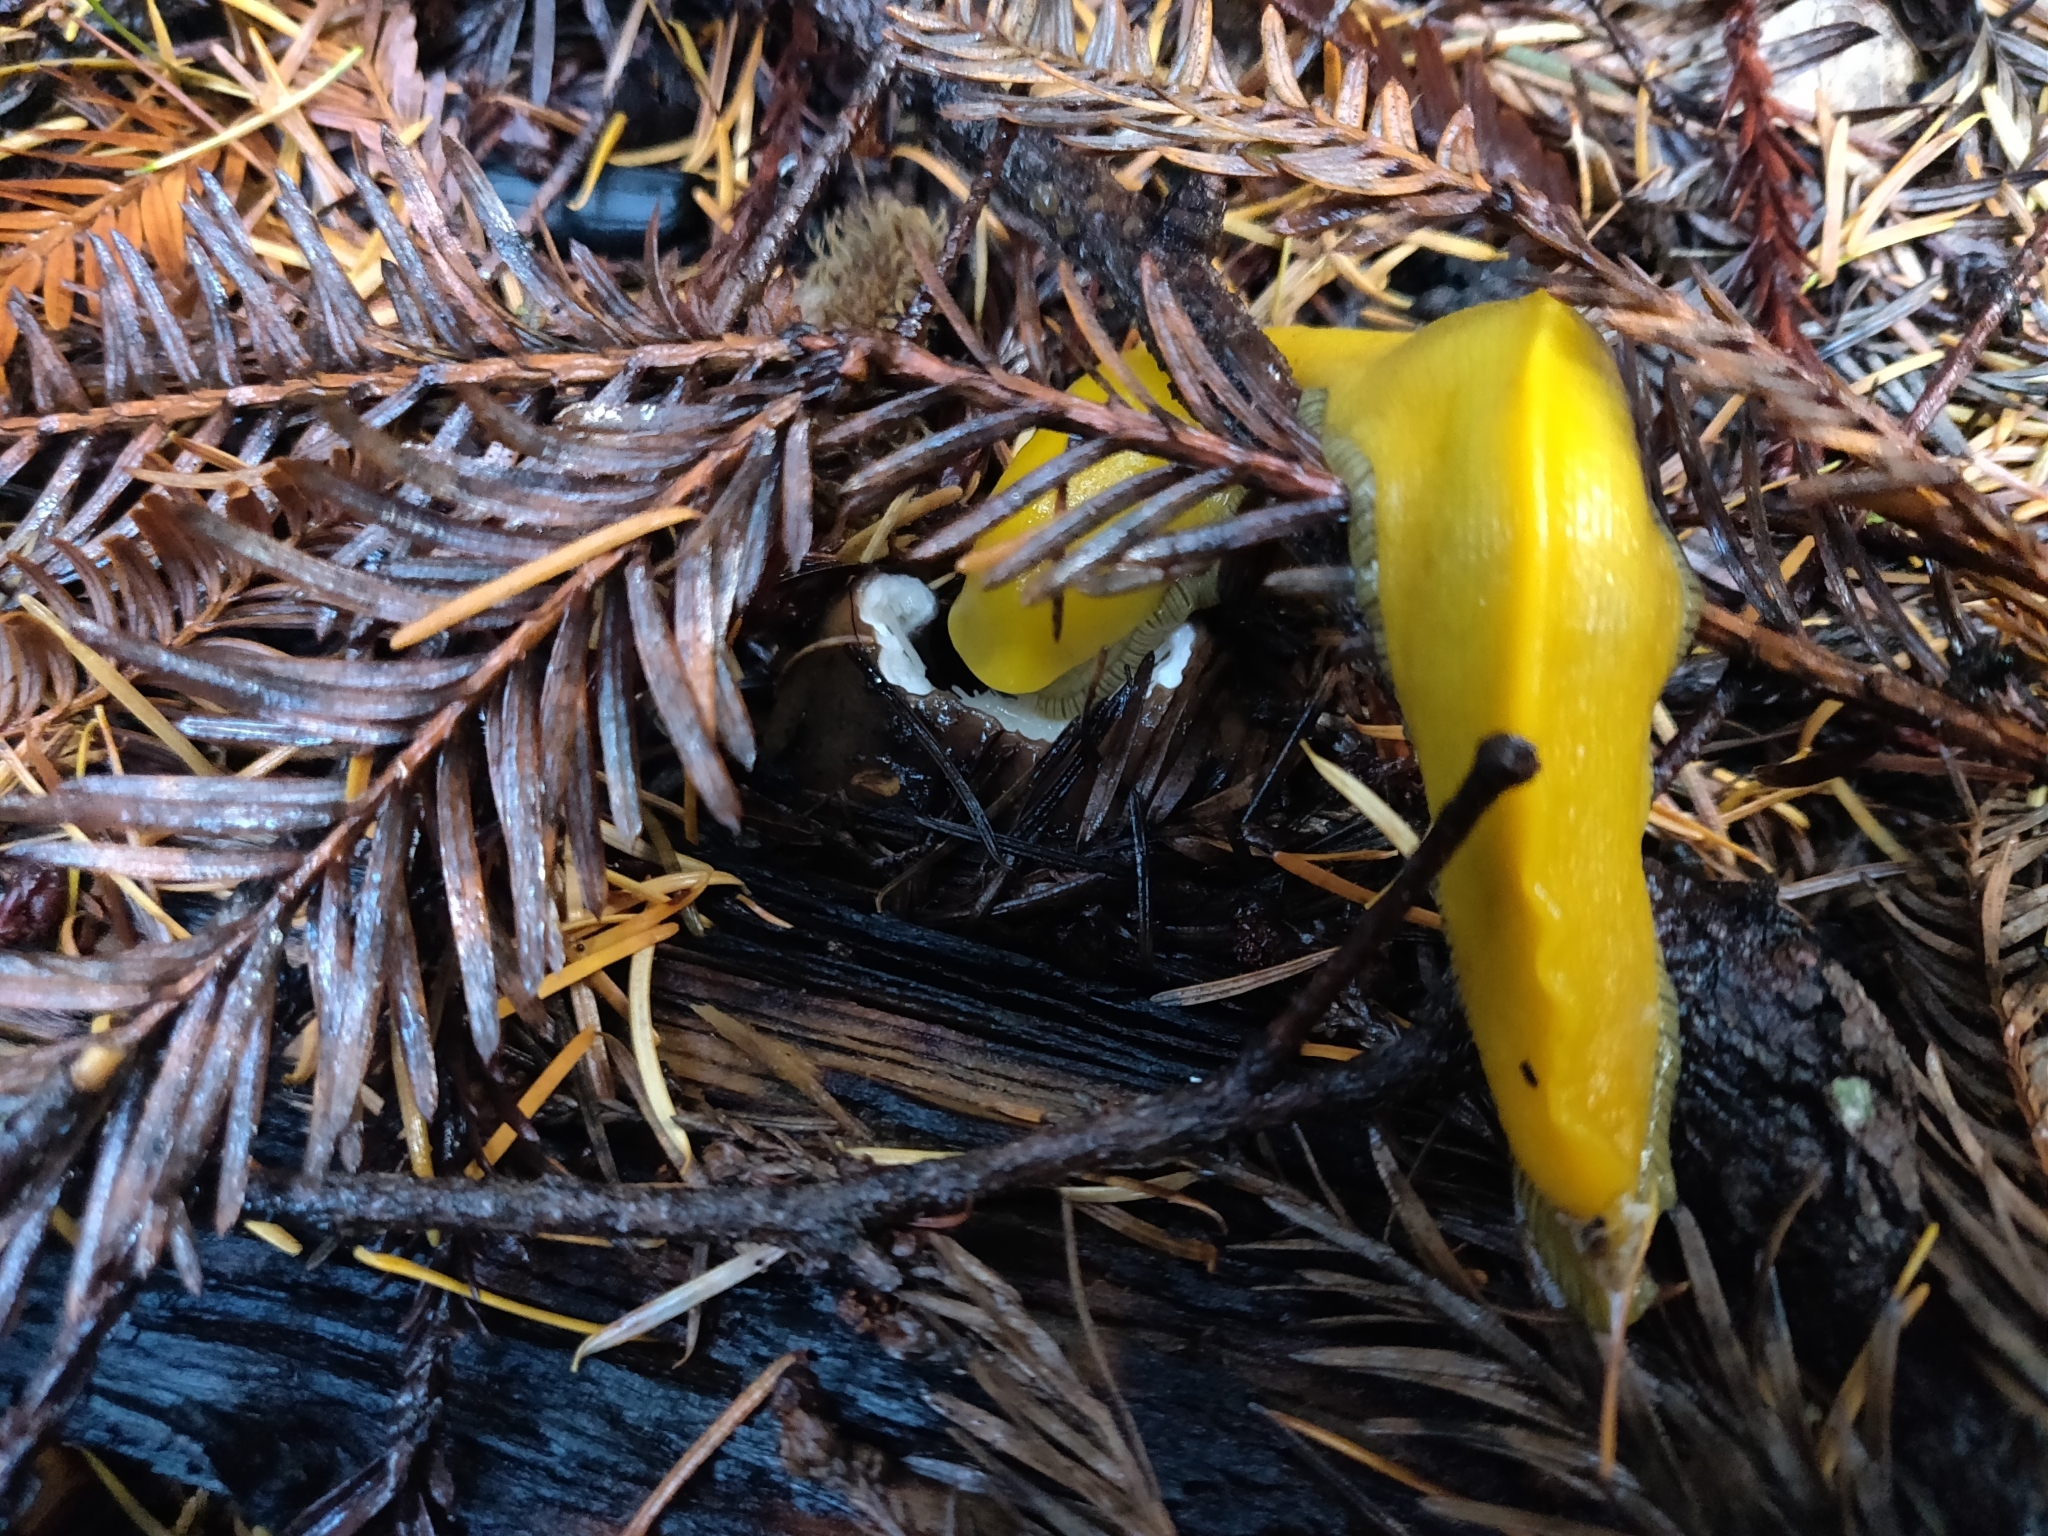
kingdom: Animalia
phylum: Mollusca
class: Gastropoda
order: Stylommatophora
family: Ariolimacidae
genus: Ariolimax
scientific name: Ariolimax californicus
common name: California banana slug
